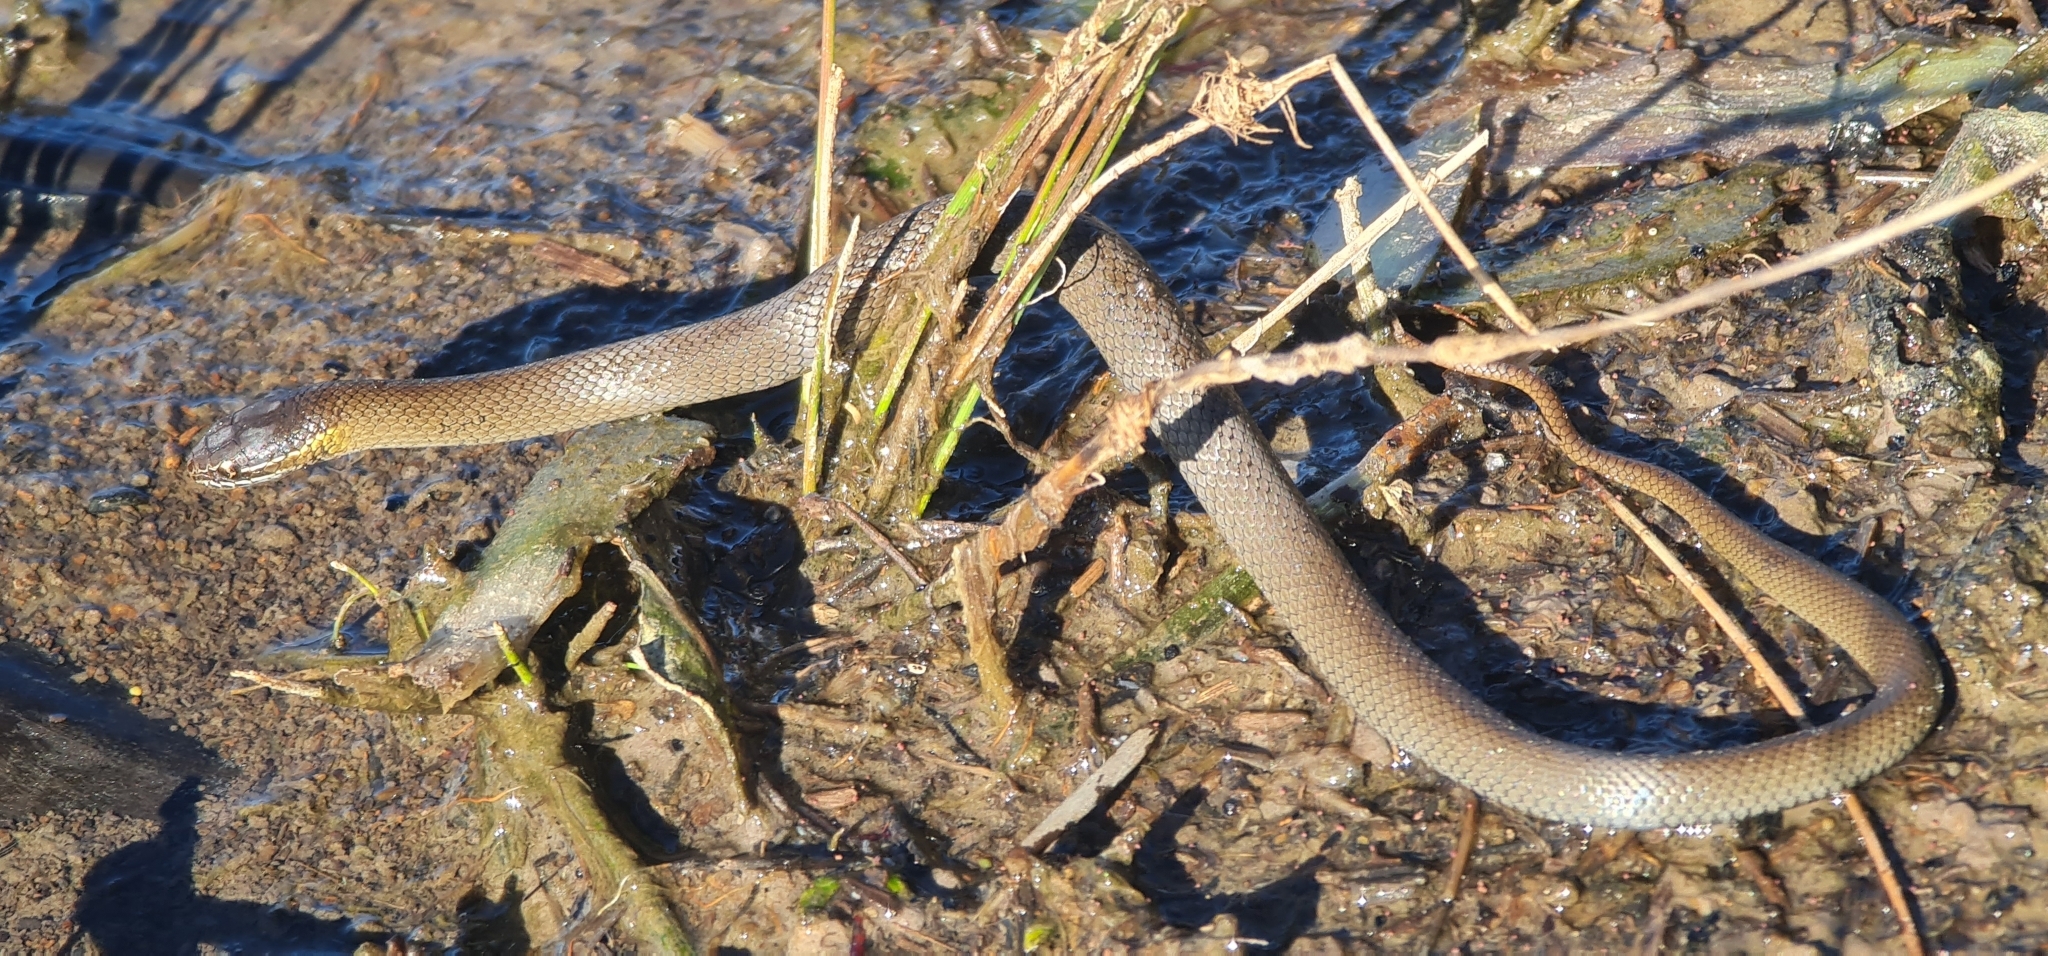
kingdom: Animalia
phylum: Chordata
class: Squamata
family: Elapidae
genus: Hemiaspis
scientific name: Hemiaspis signata
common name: Black-bellied swamp snake
